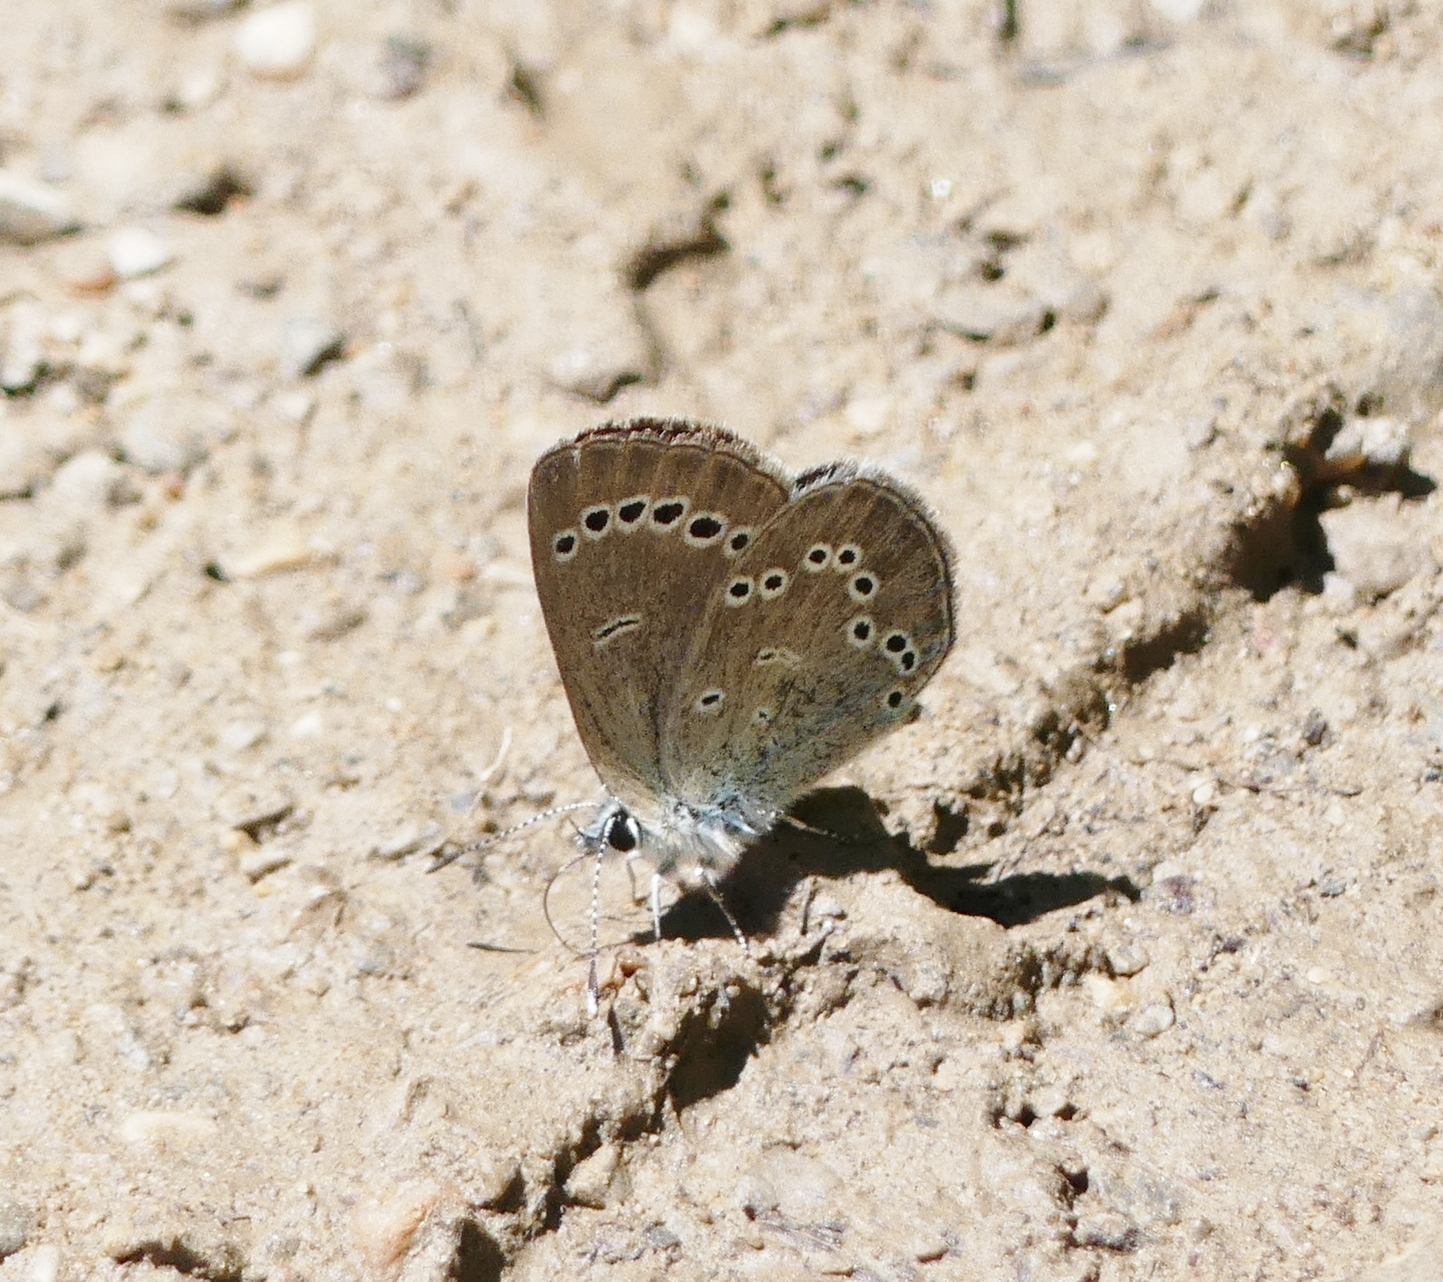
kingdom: Animalia
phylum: Arthropoda
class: Insecta
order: Lepidoptera
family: Lycaenidae
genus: Glaucopsyche
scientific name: Glaucopsyche lygdamus
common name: Silvery blue
